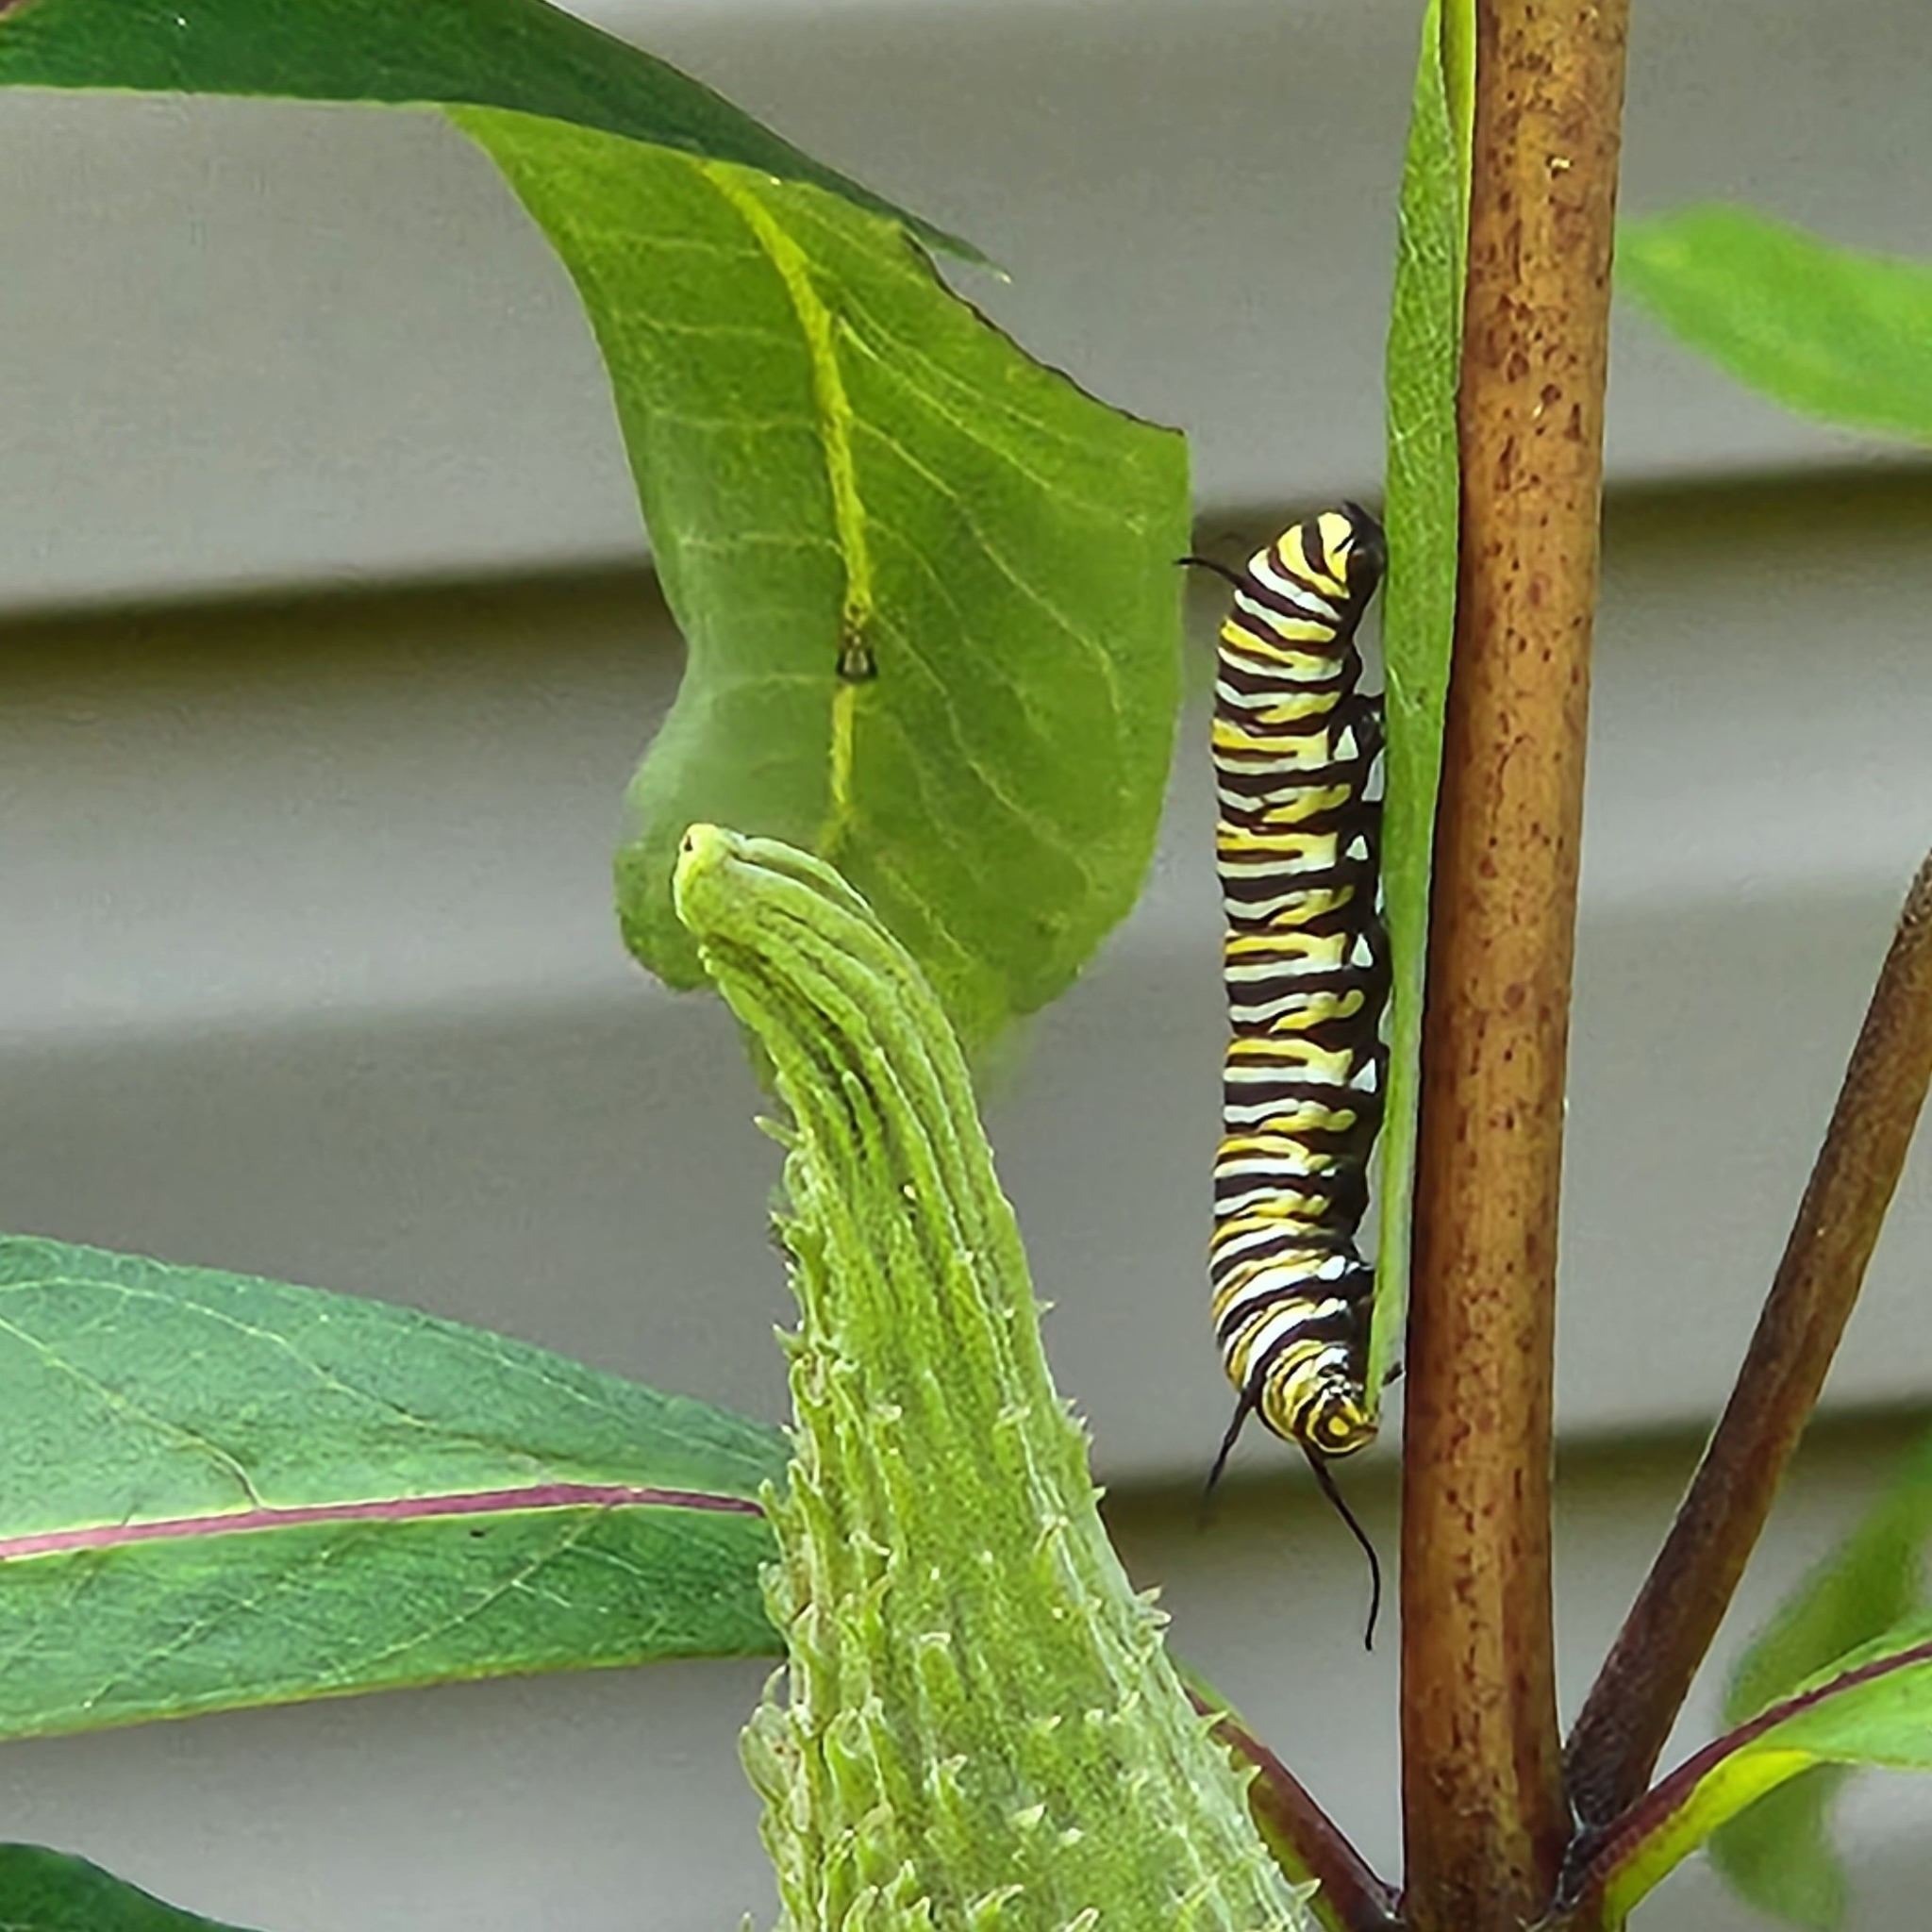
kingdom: Animalia
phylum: Arthropoda
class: Insecta
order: Lepidoptera
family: Nymphalidae
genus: Danaus
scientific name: Danaus plexippus
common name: Monarch
